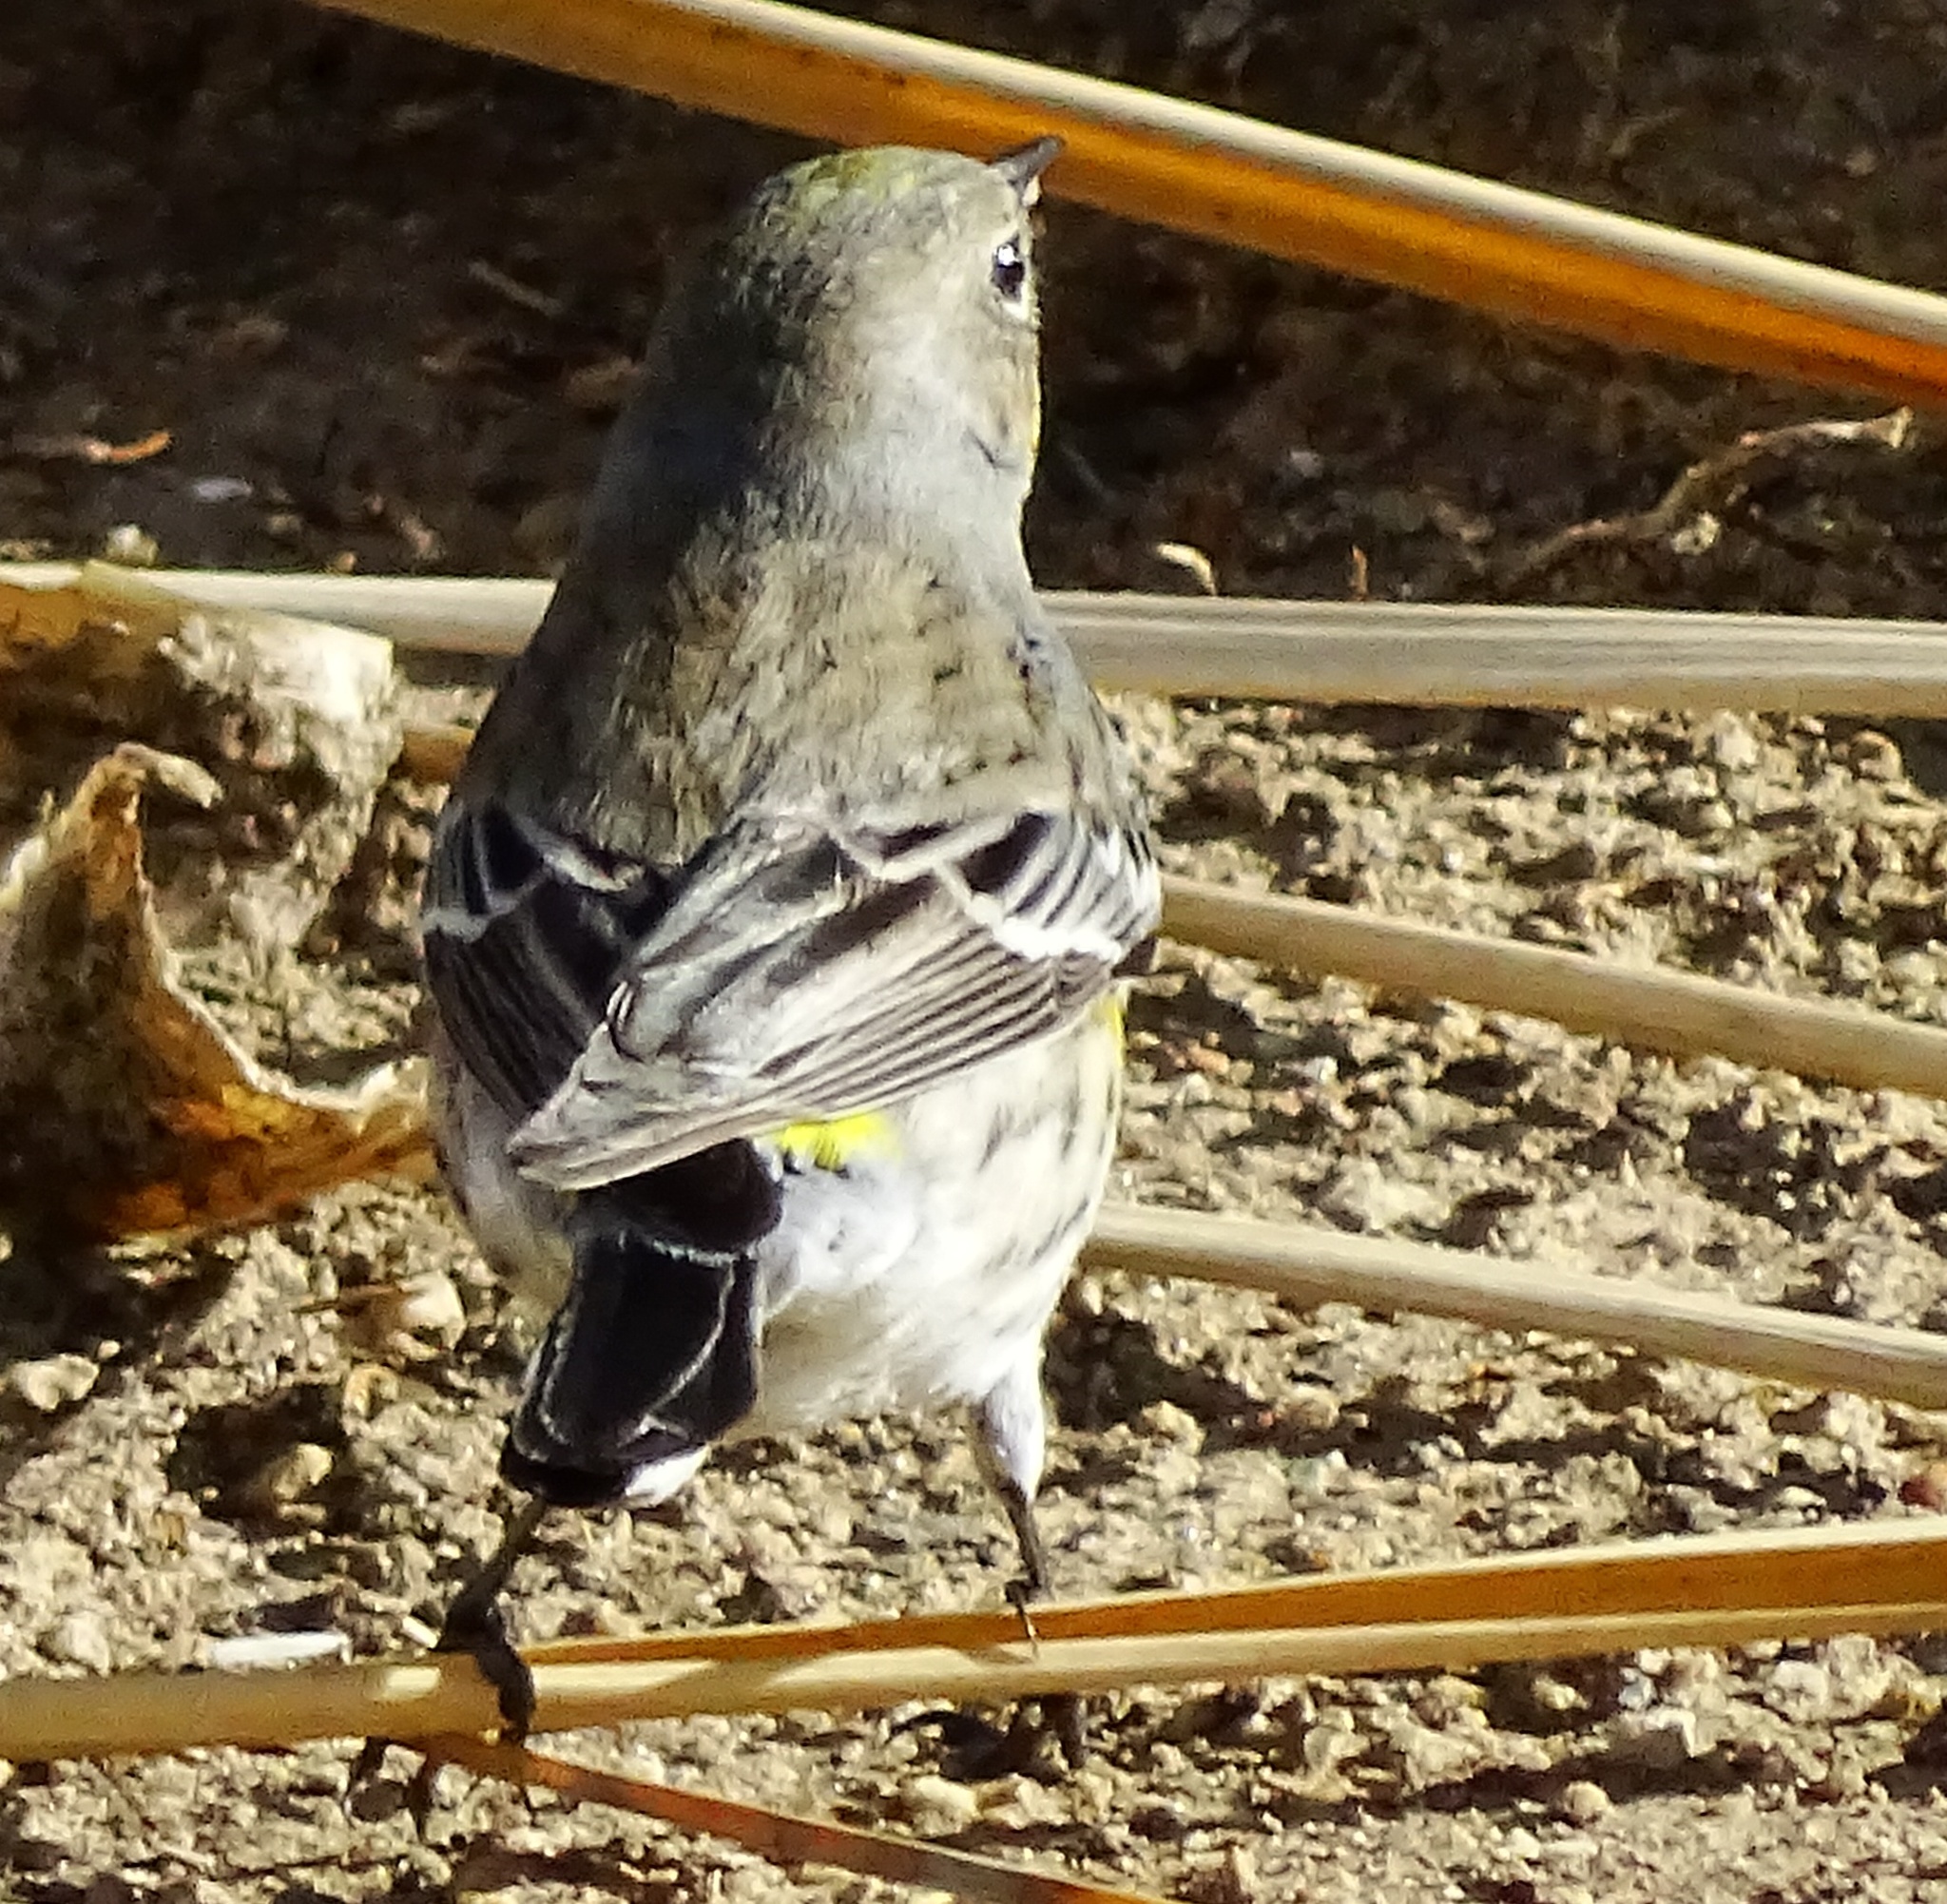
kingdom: Animalia
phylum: Chordata
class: Aves
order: Passeriformes
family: Parulidae
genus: Setophaga
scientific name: Setophaga coronata
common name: Myrtle warbler
